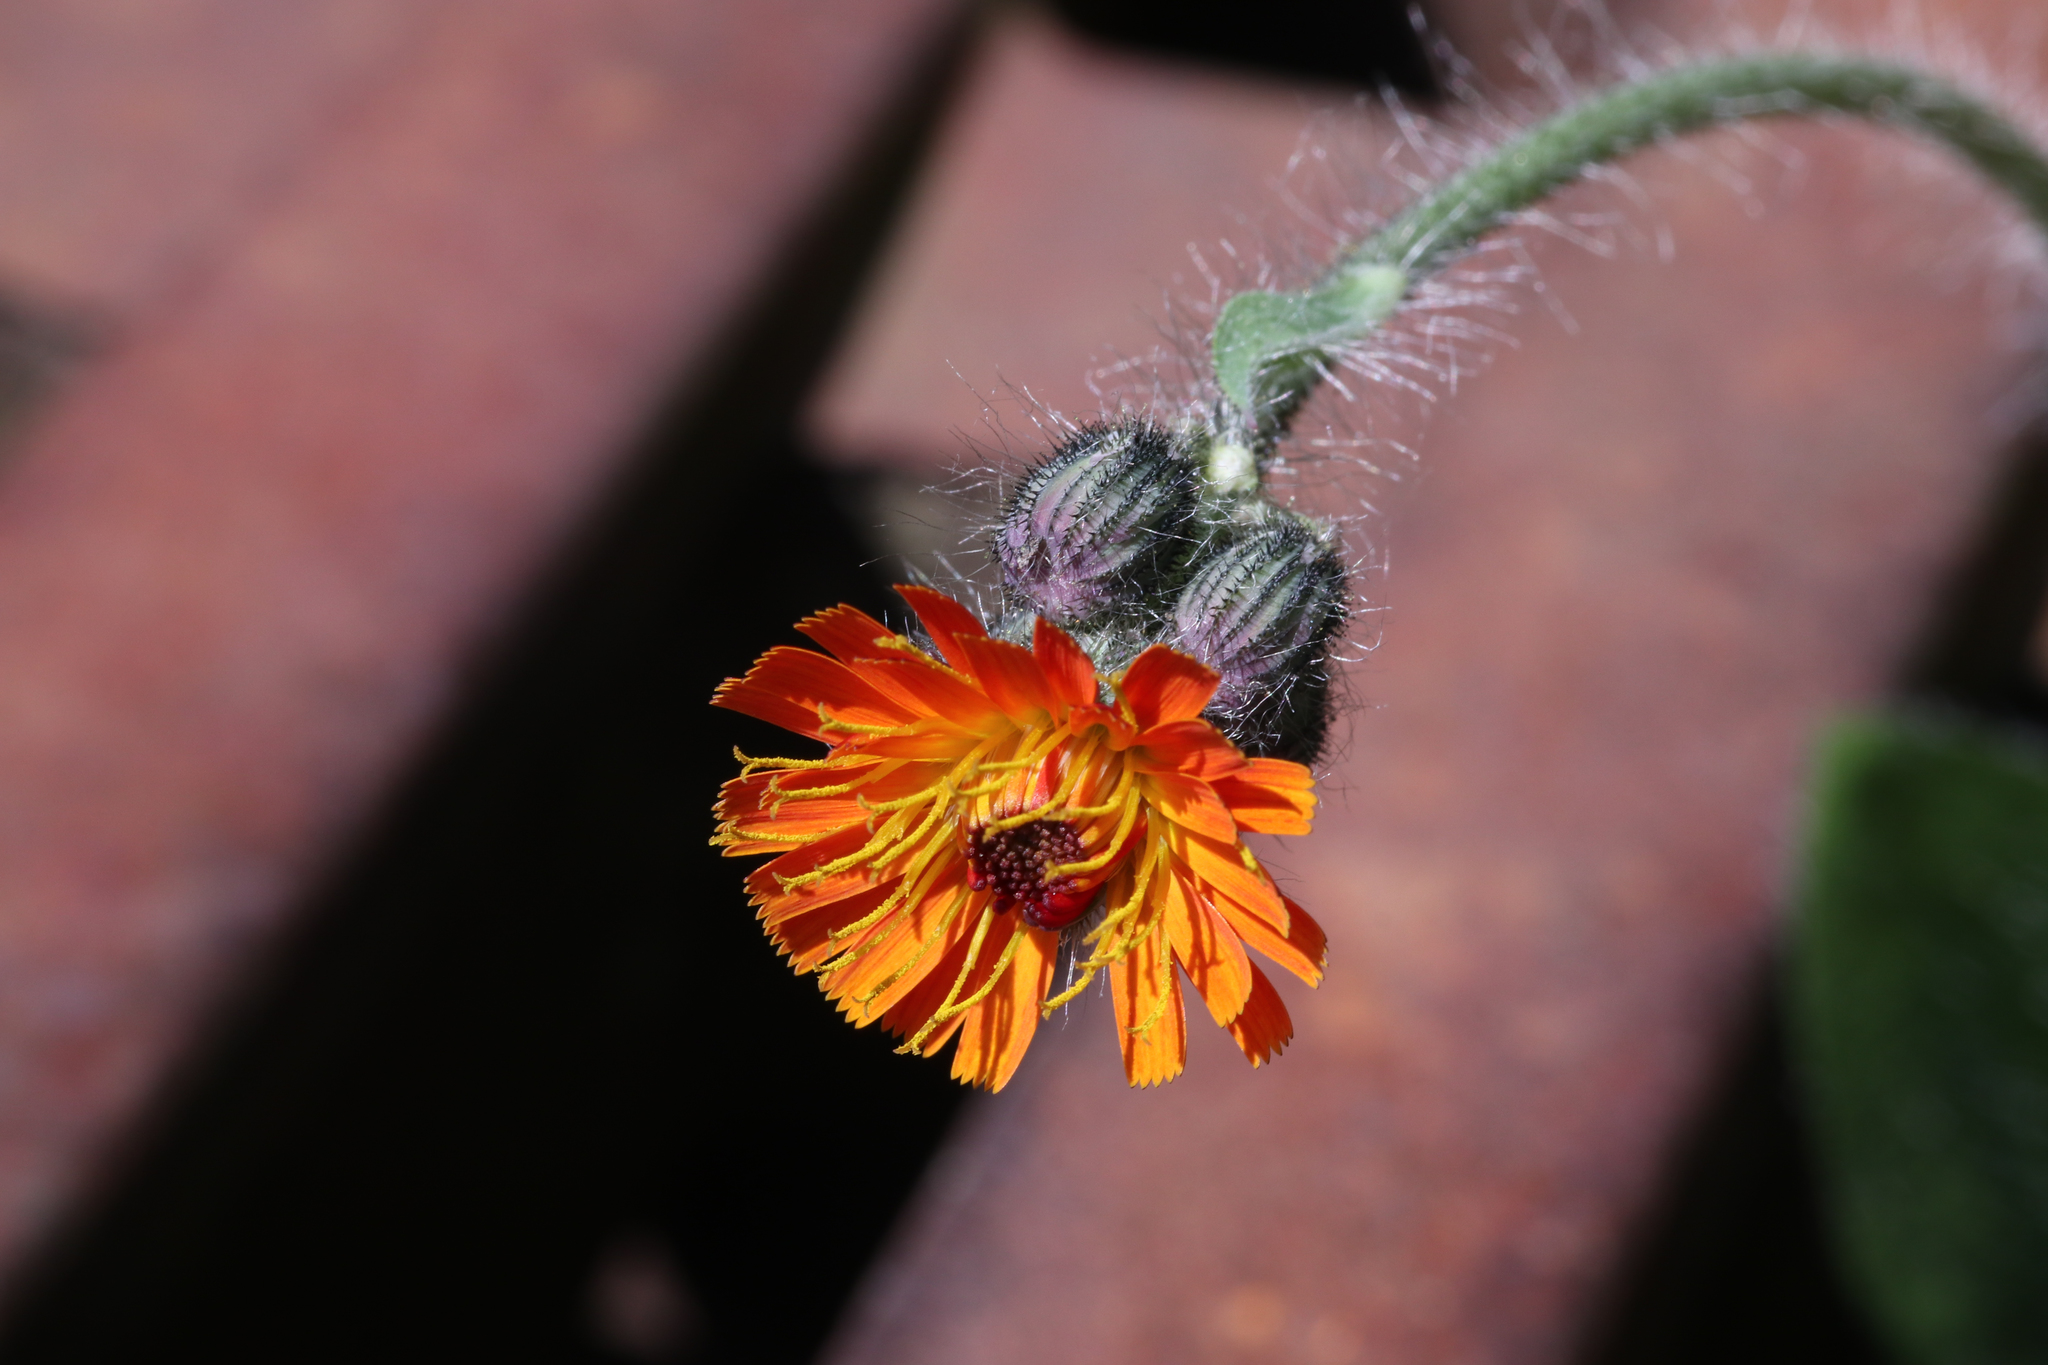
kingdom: Plantae
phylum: Tracheophyta
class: Magnoliopsida
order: Asterales
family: Asteraceae
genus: Pilosella
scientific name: Pilosella aurantiaca
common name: Fox-and-cubs
